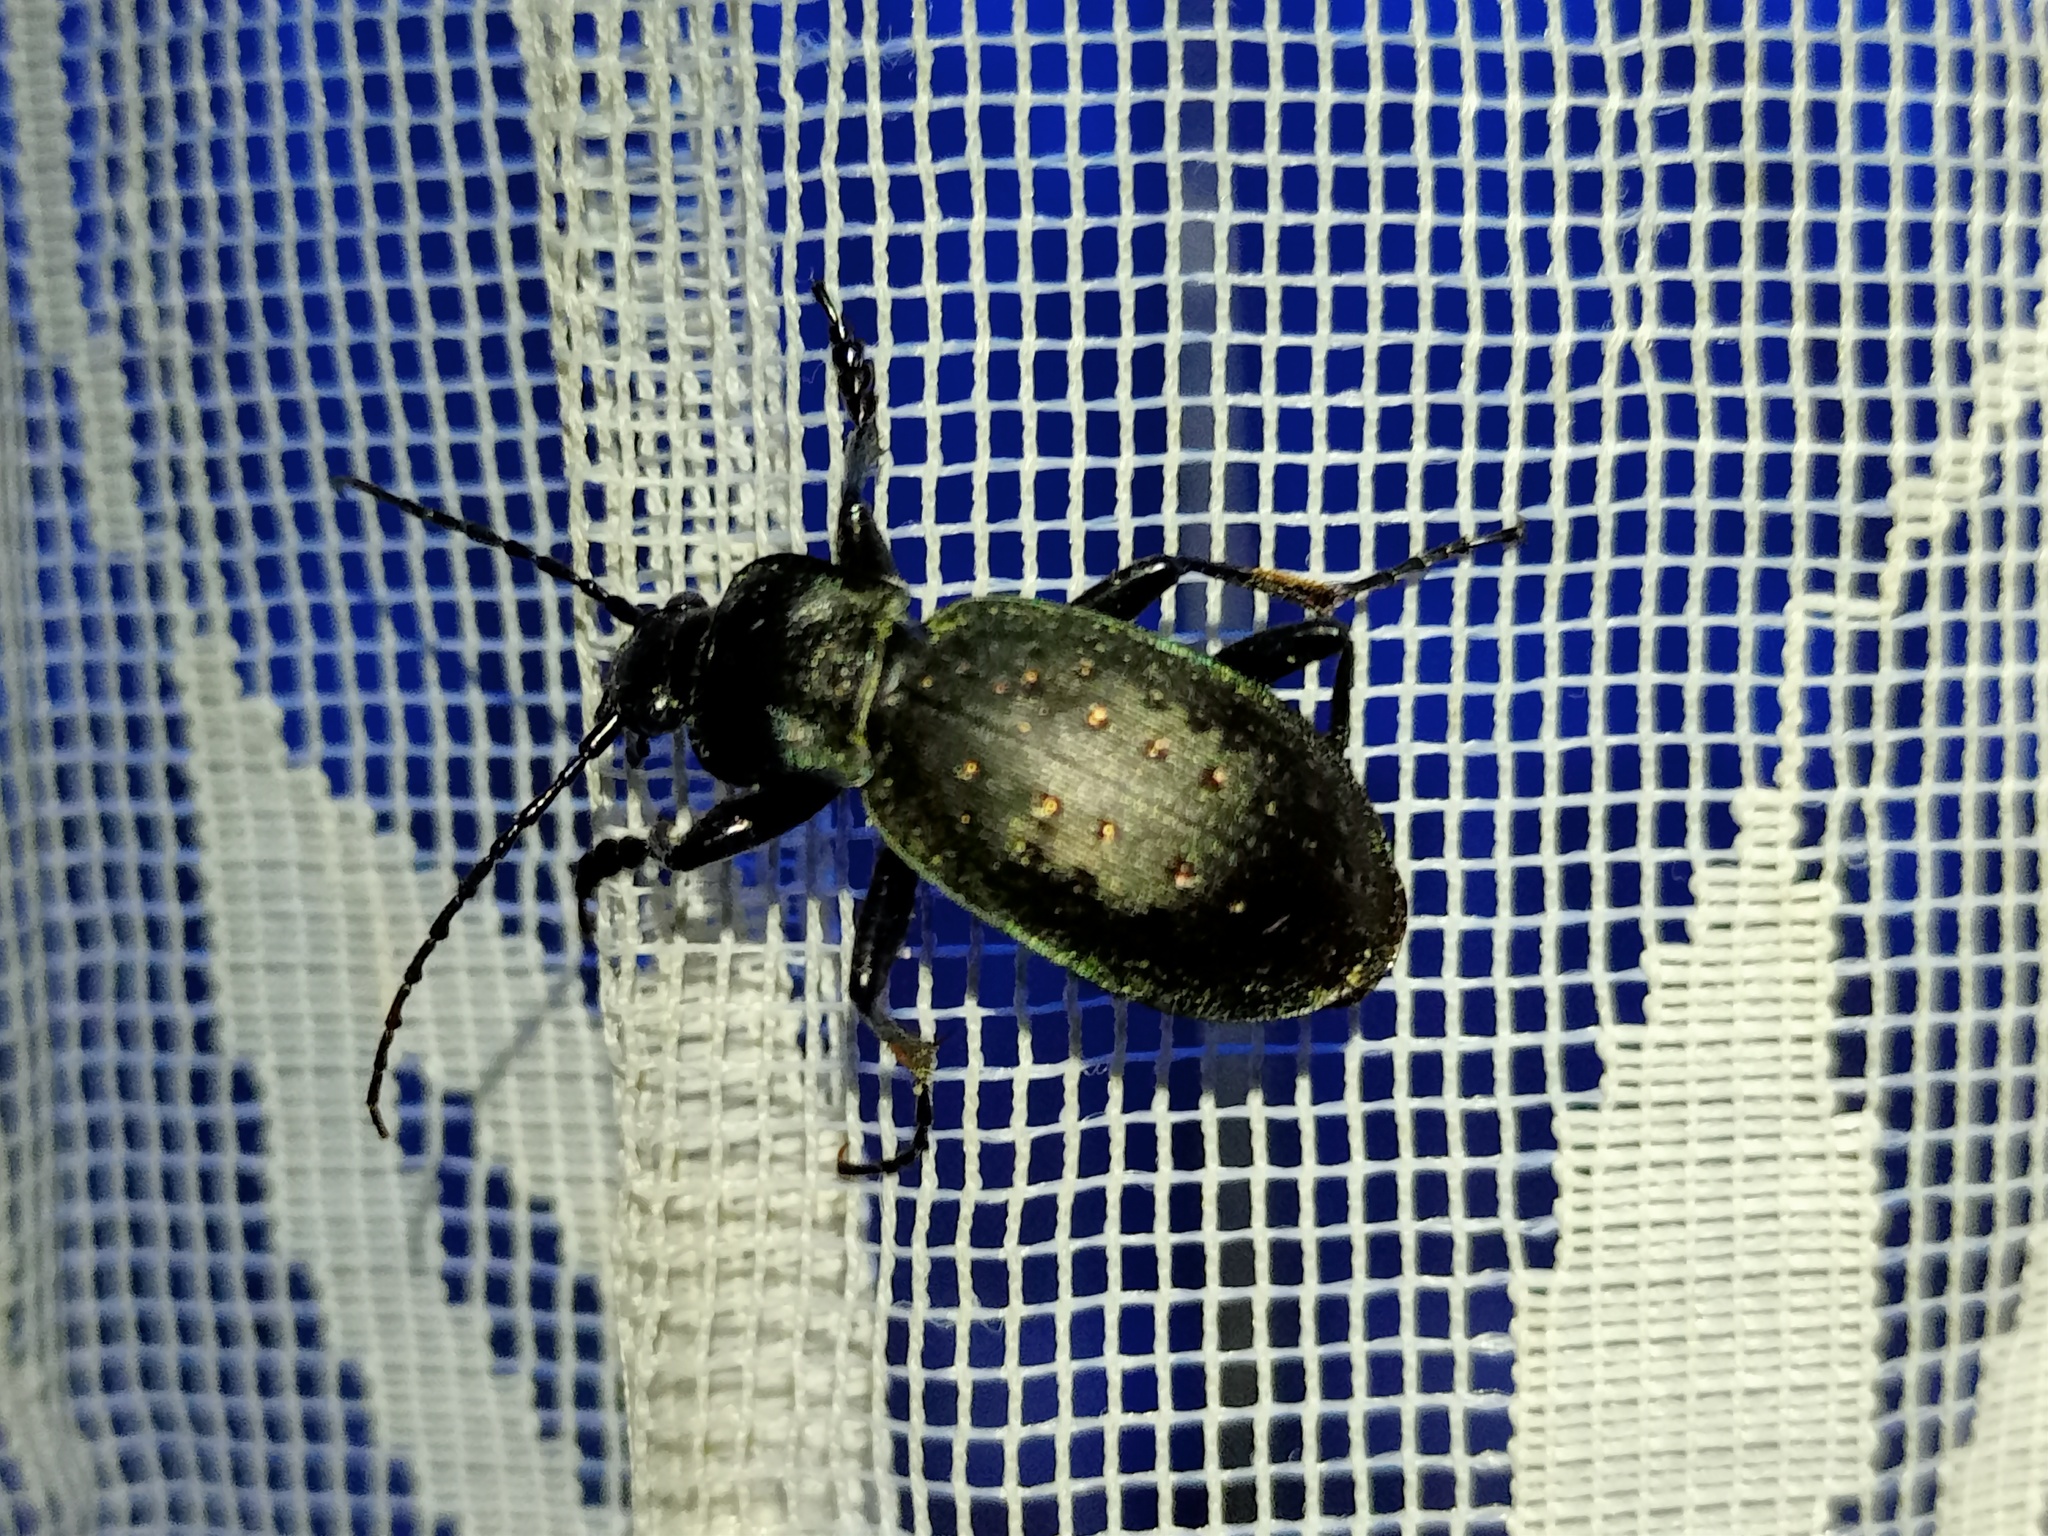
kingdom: Animalia
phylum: Arthropoda
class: Insecta
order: Coleoptera
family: Carabidae
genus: Carabus
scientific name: Carabus hortensis
